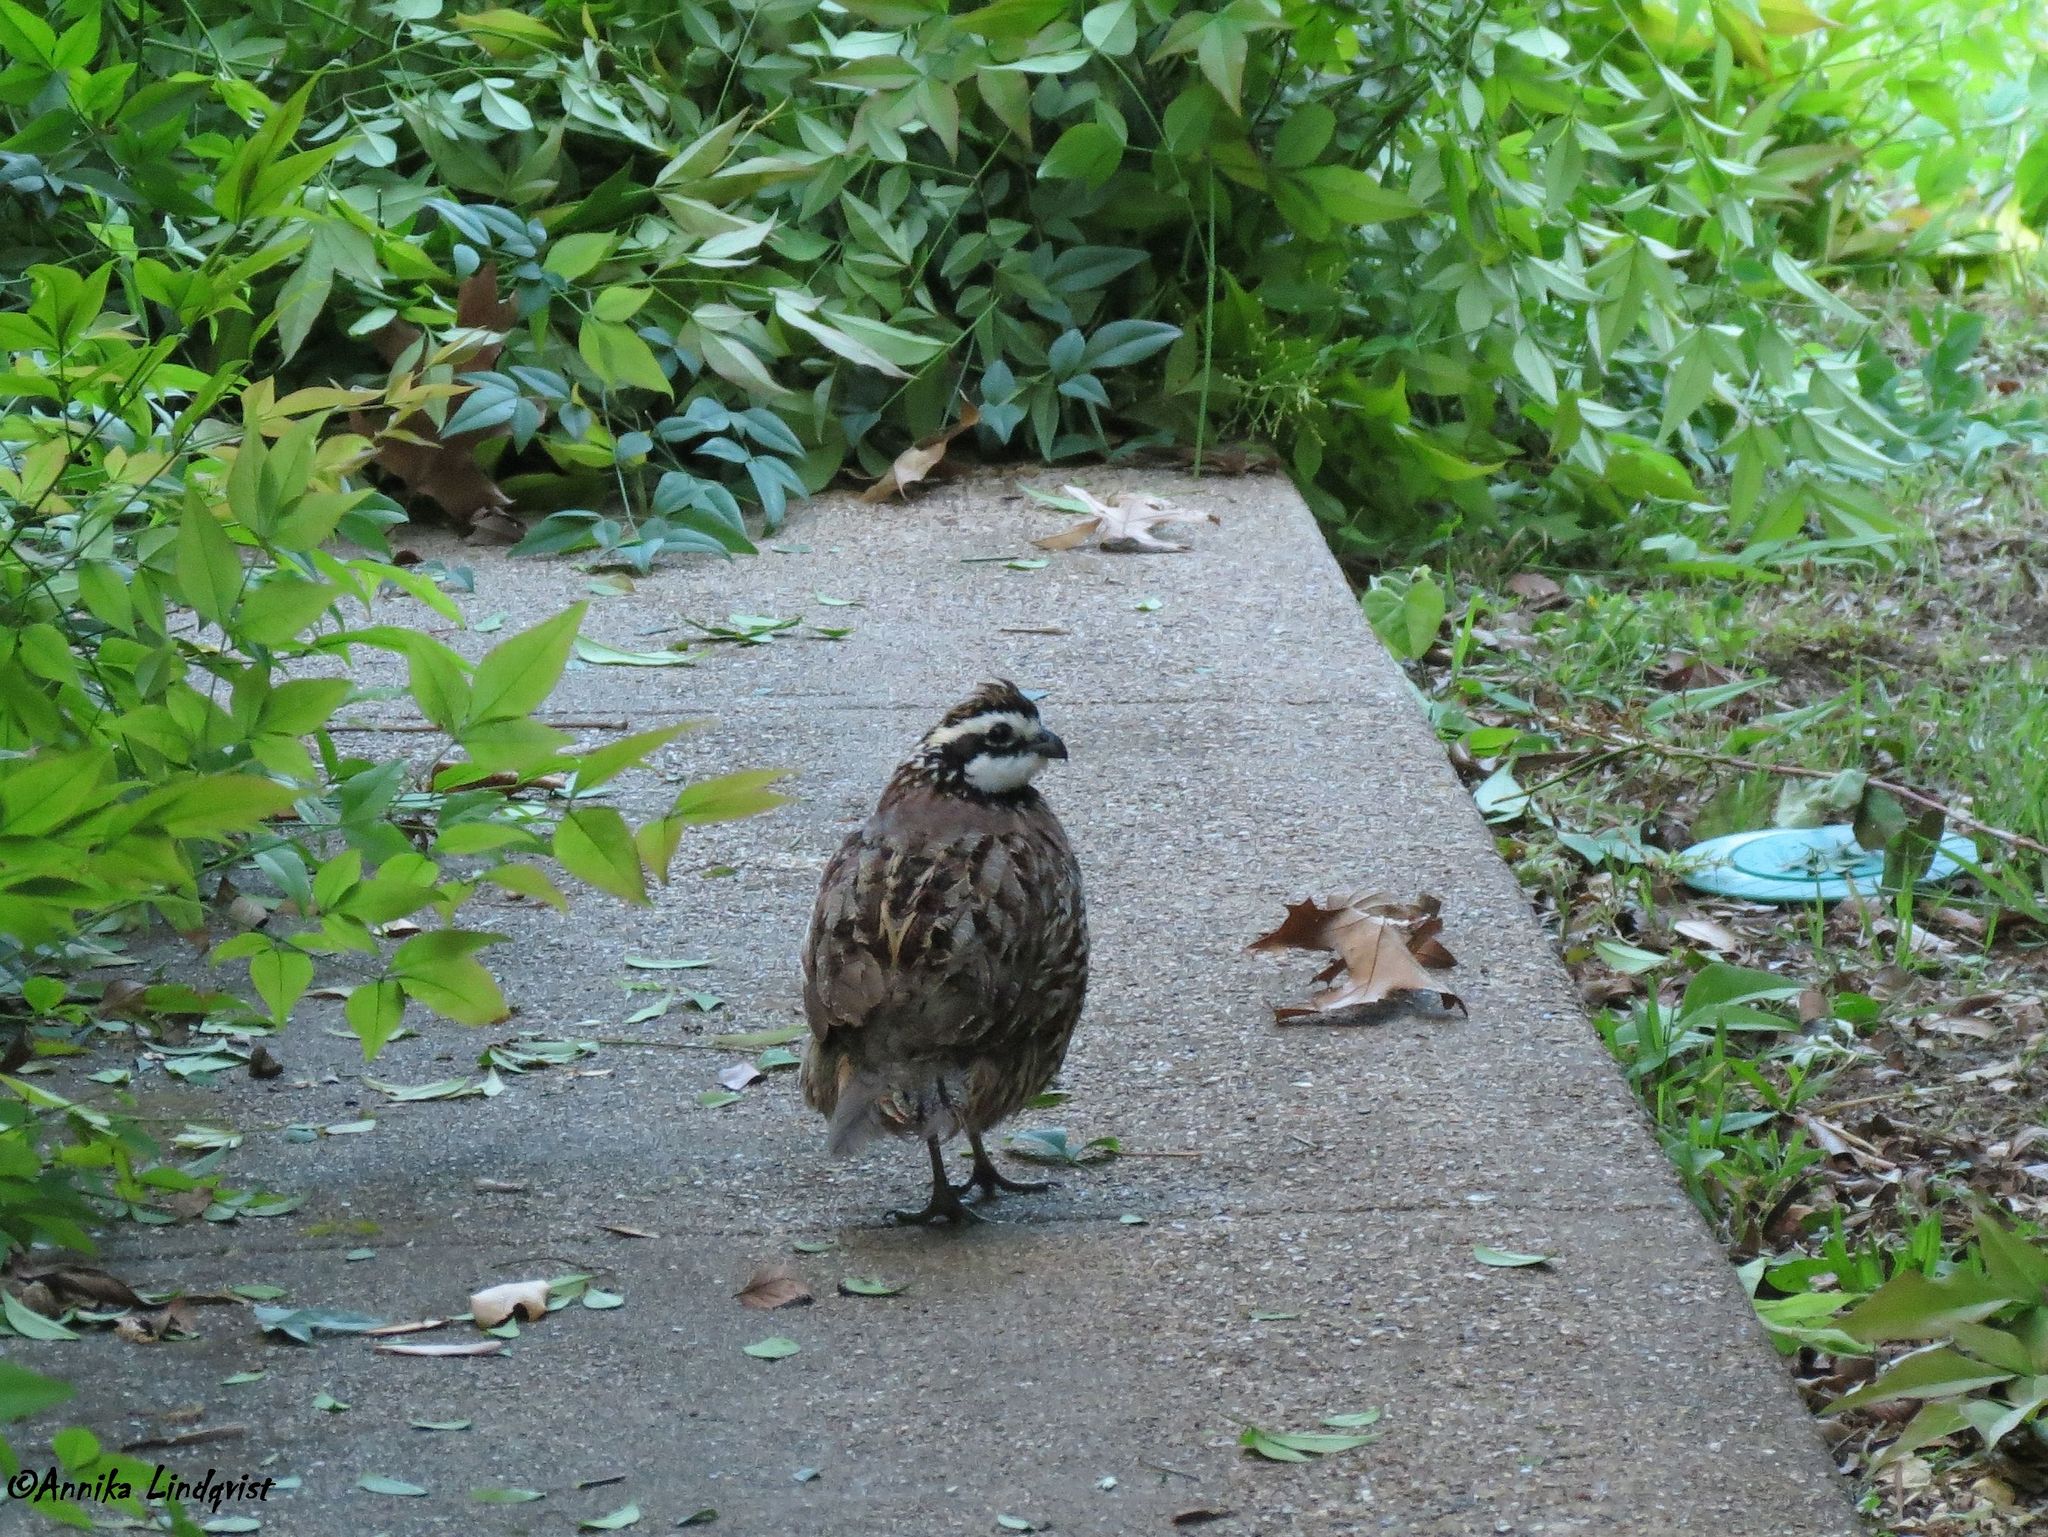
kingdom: Animalia
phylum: Chordata
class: Aves
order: Galliformes
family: Odontophoridae
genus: Colinus
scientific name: Colinus virginianus
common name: Northern bobwhite
